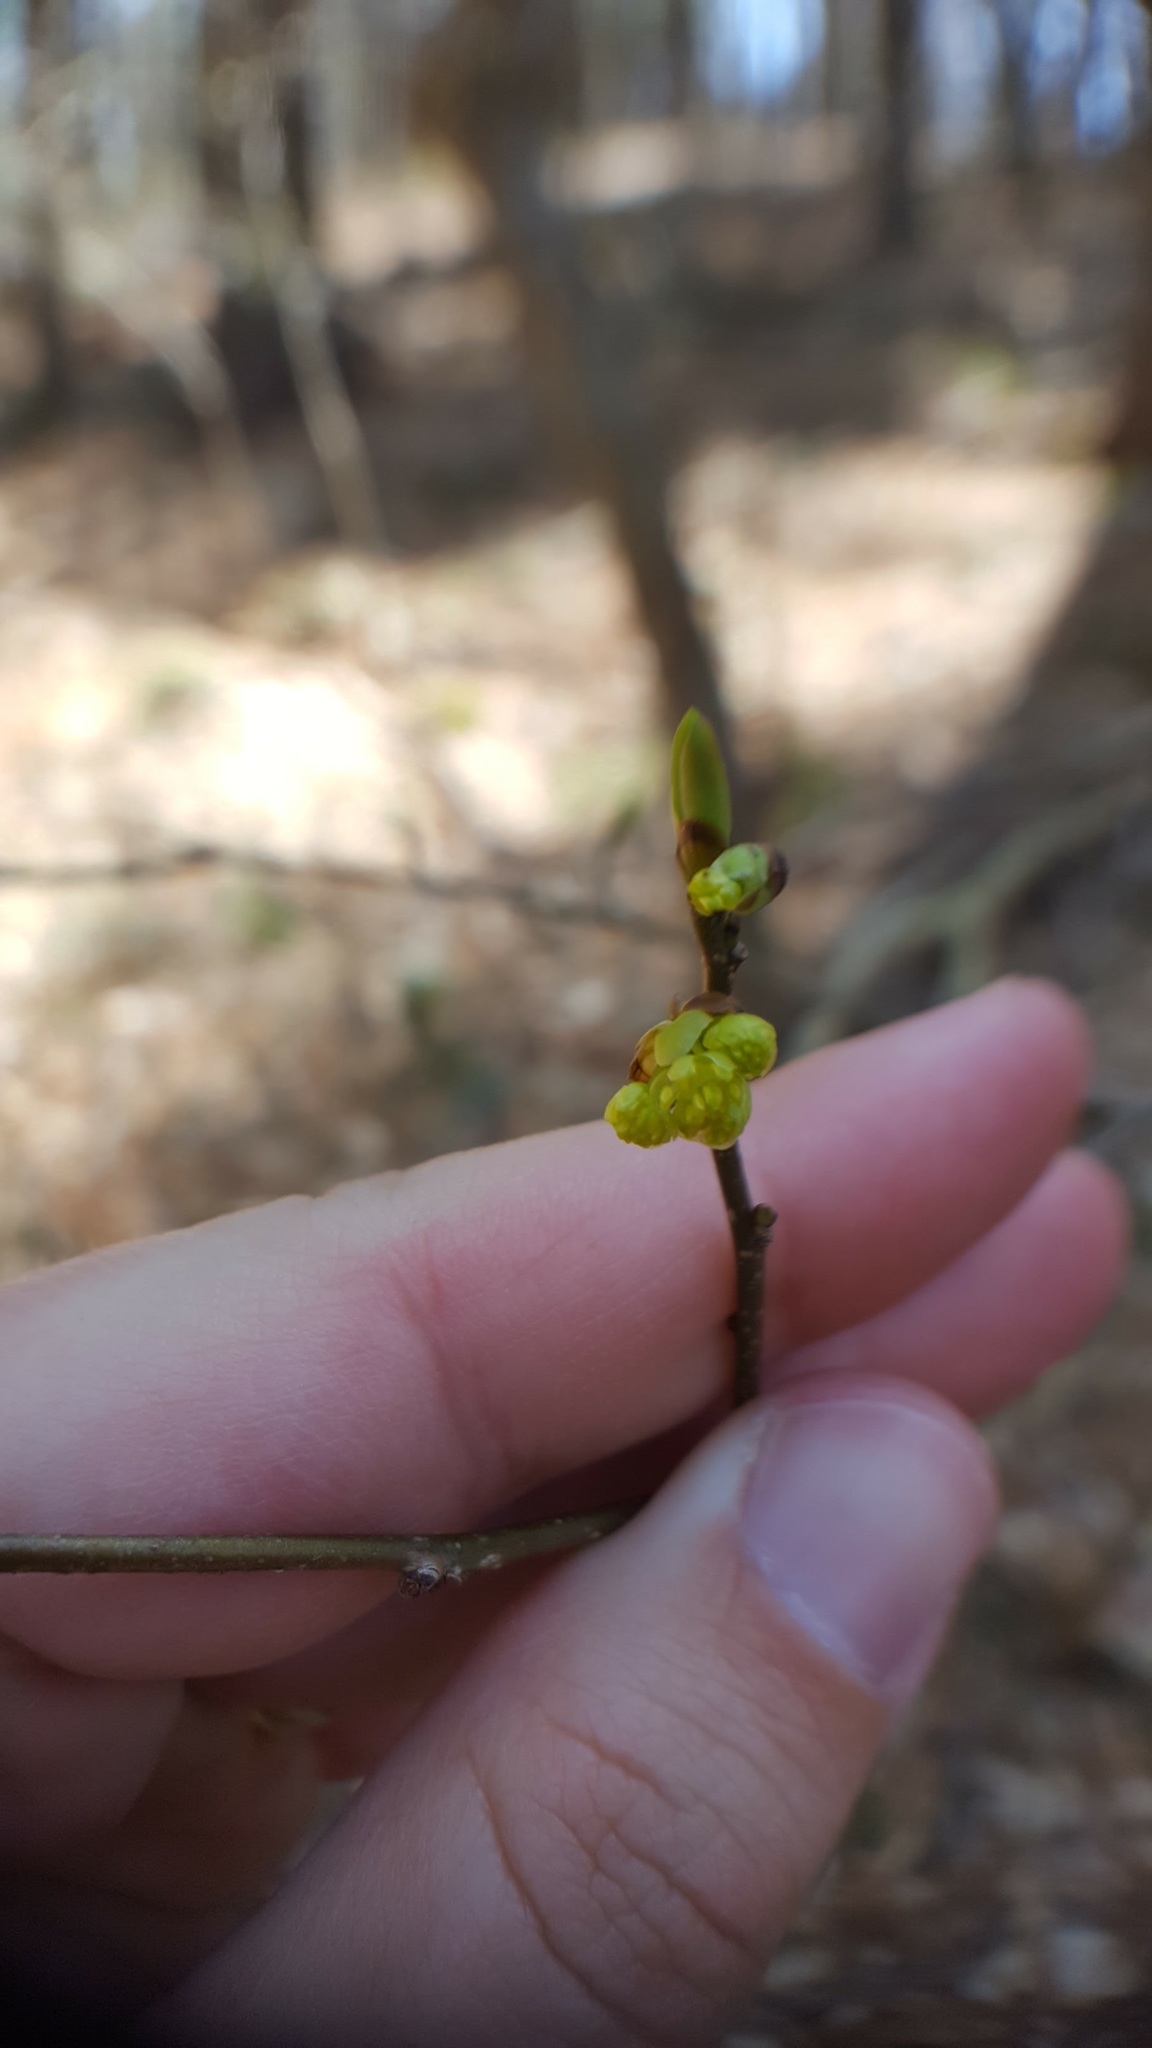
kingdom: Plantae
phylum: Tracheophyta
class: Magnoliopsida
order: Laurales
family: Lauraceae
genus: Lindera
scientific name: Lindera benzoin
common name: Spicebush
